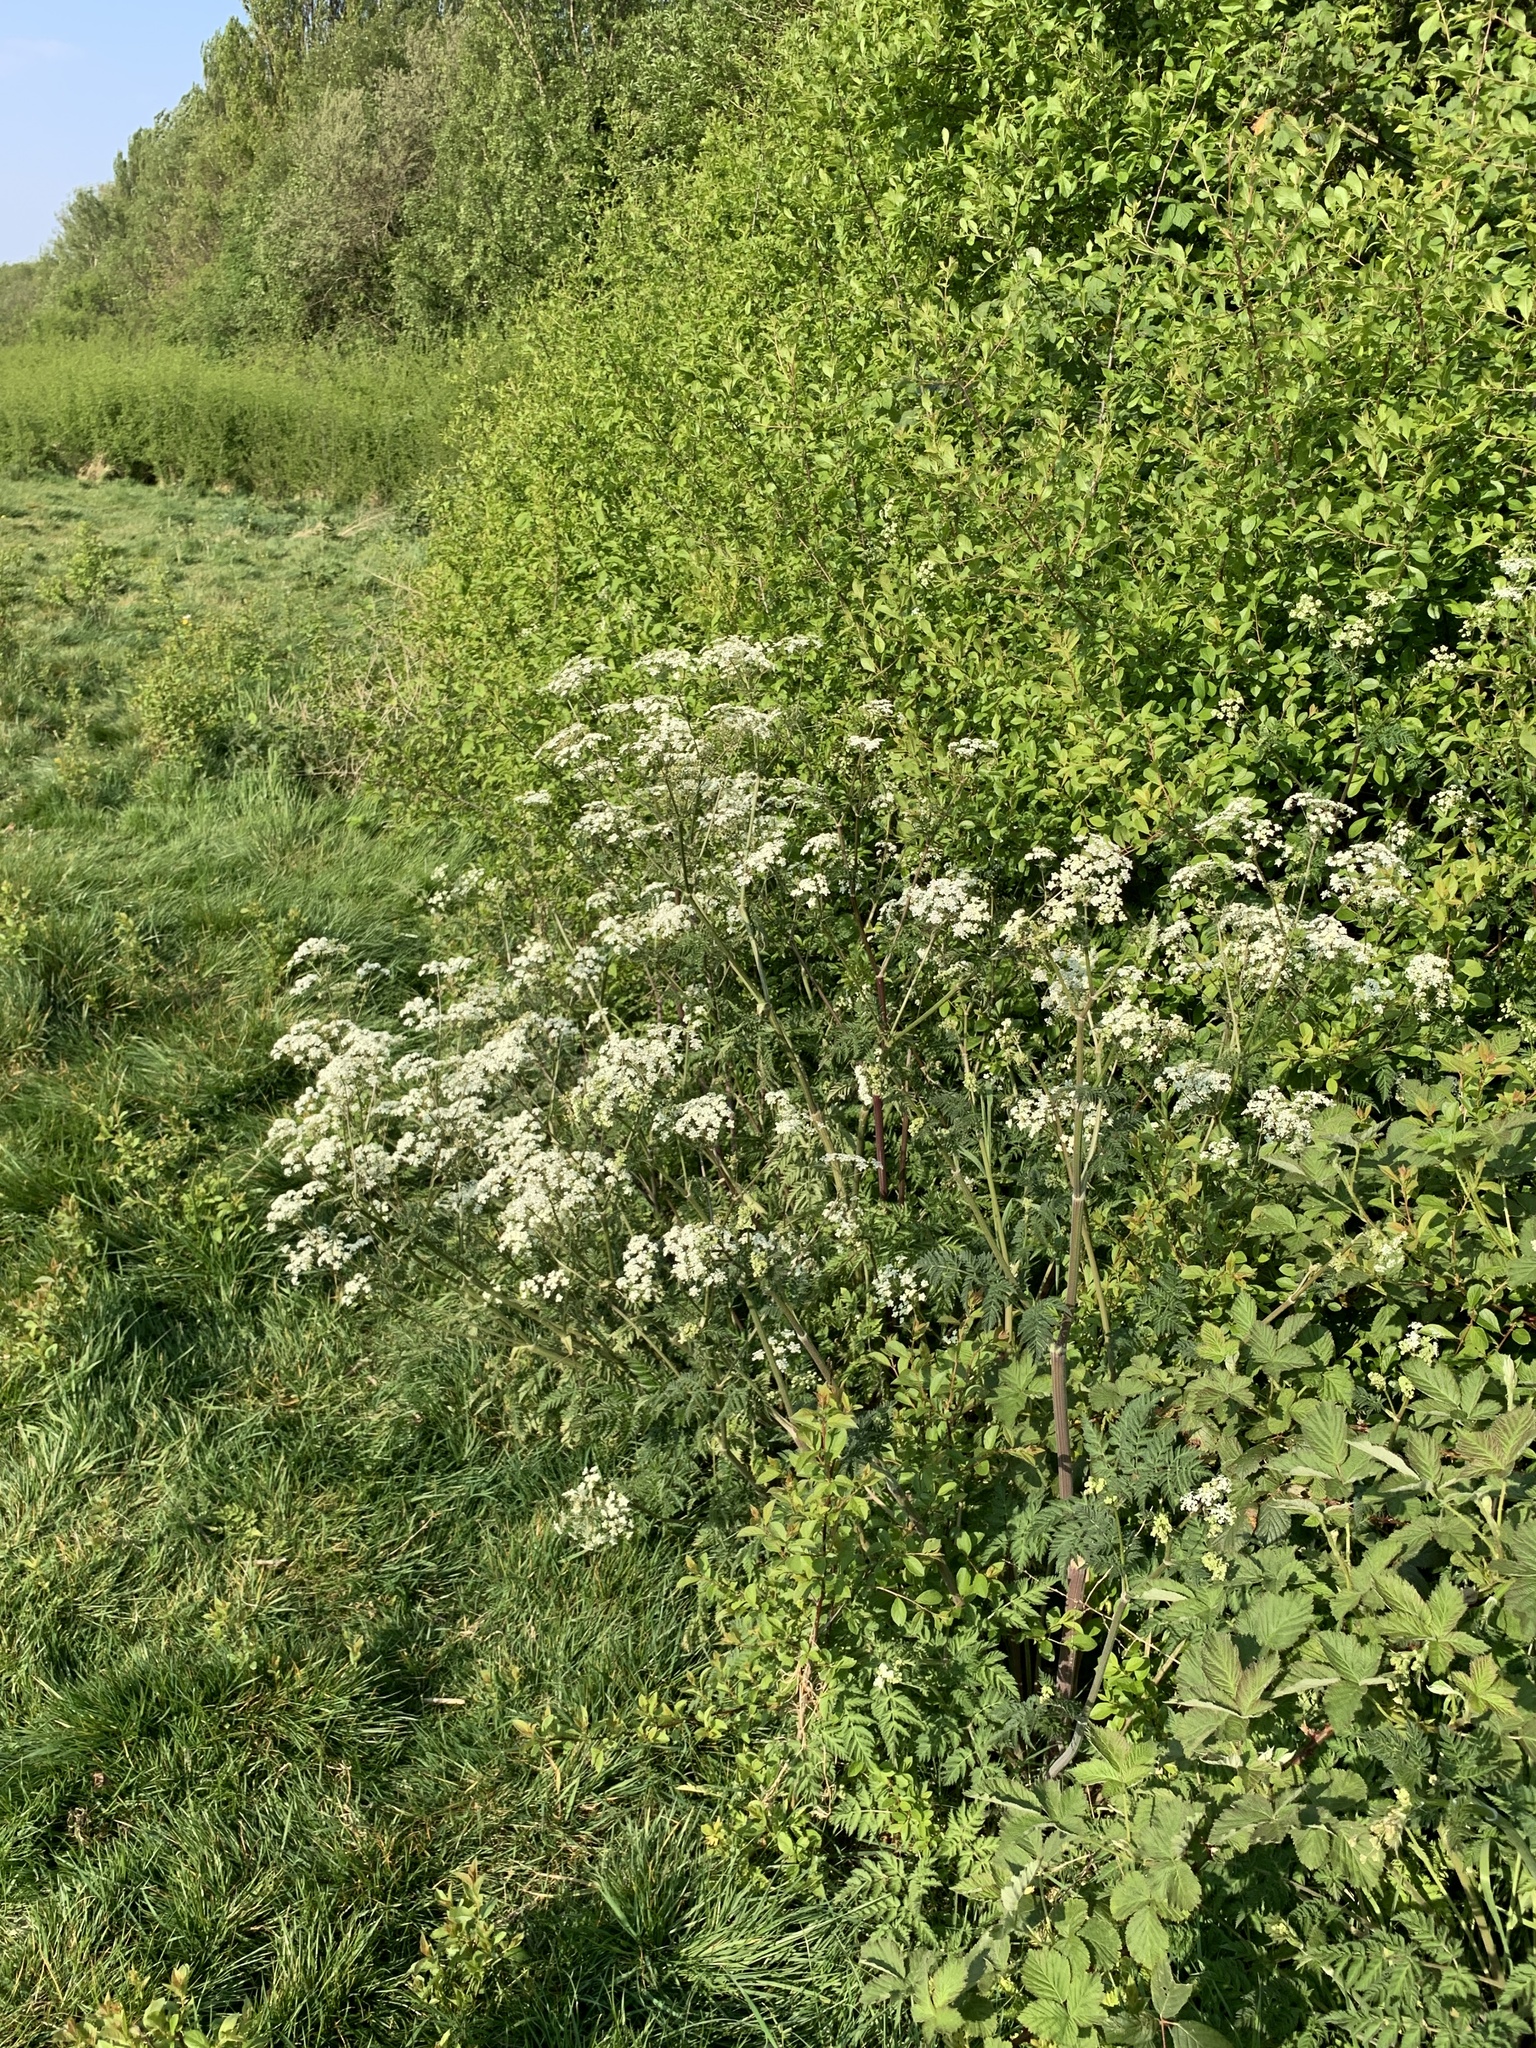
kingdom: Plantae
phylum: Tracheophyta
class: Magnoliopsida
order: Apiales
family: Apiaceae
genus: Anthriscus
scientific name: Anthriscus sylvestris
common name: Cow parsley
